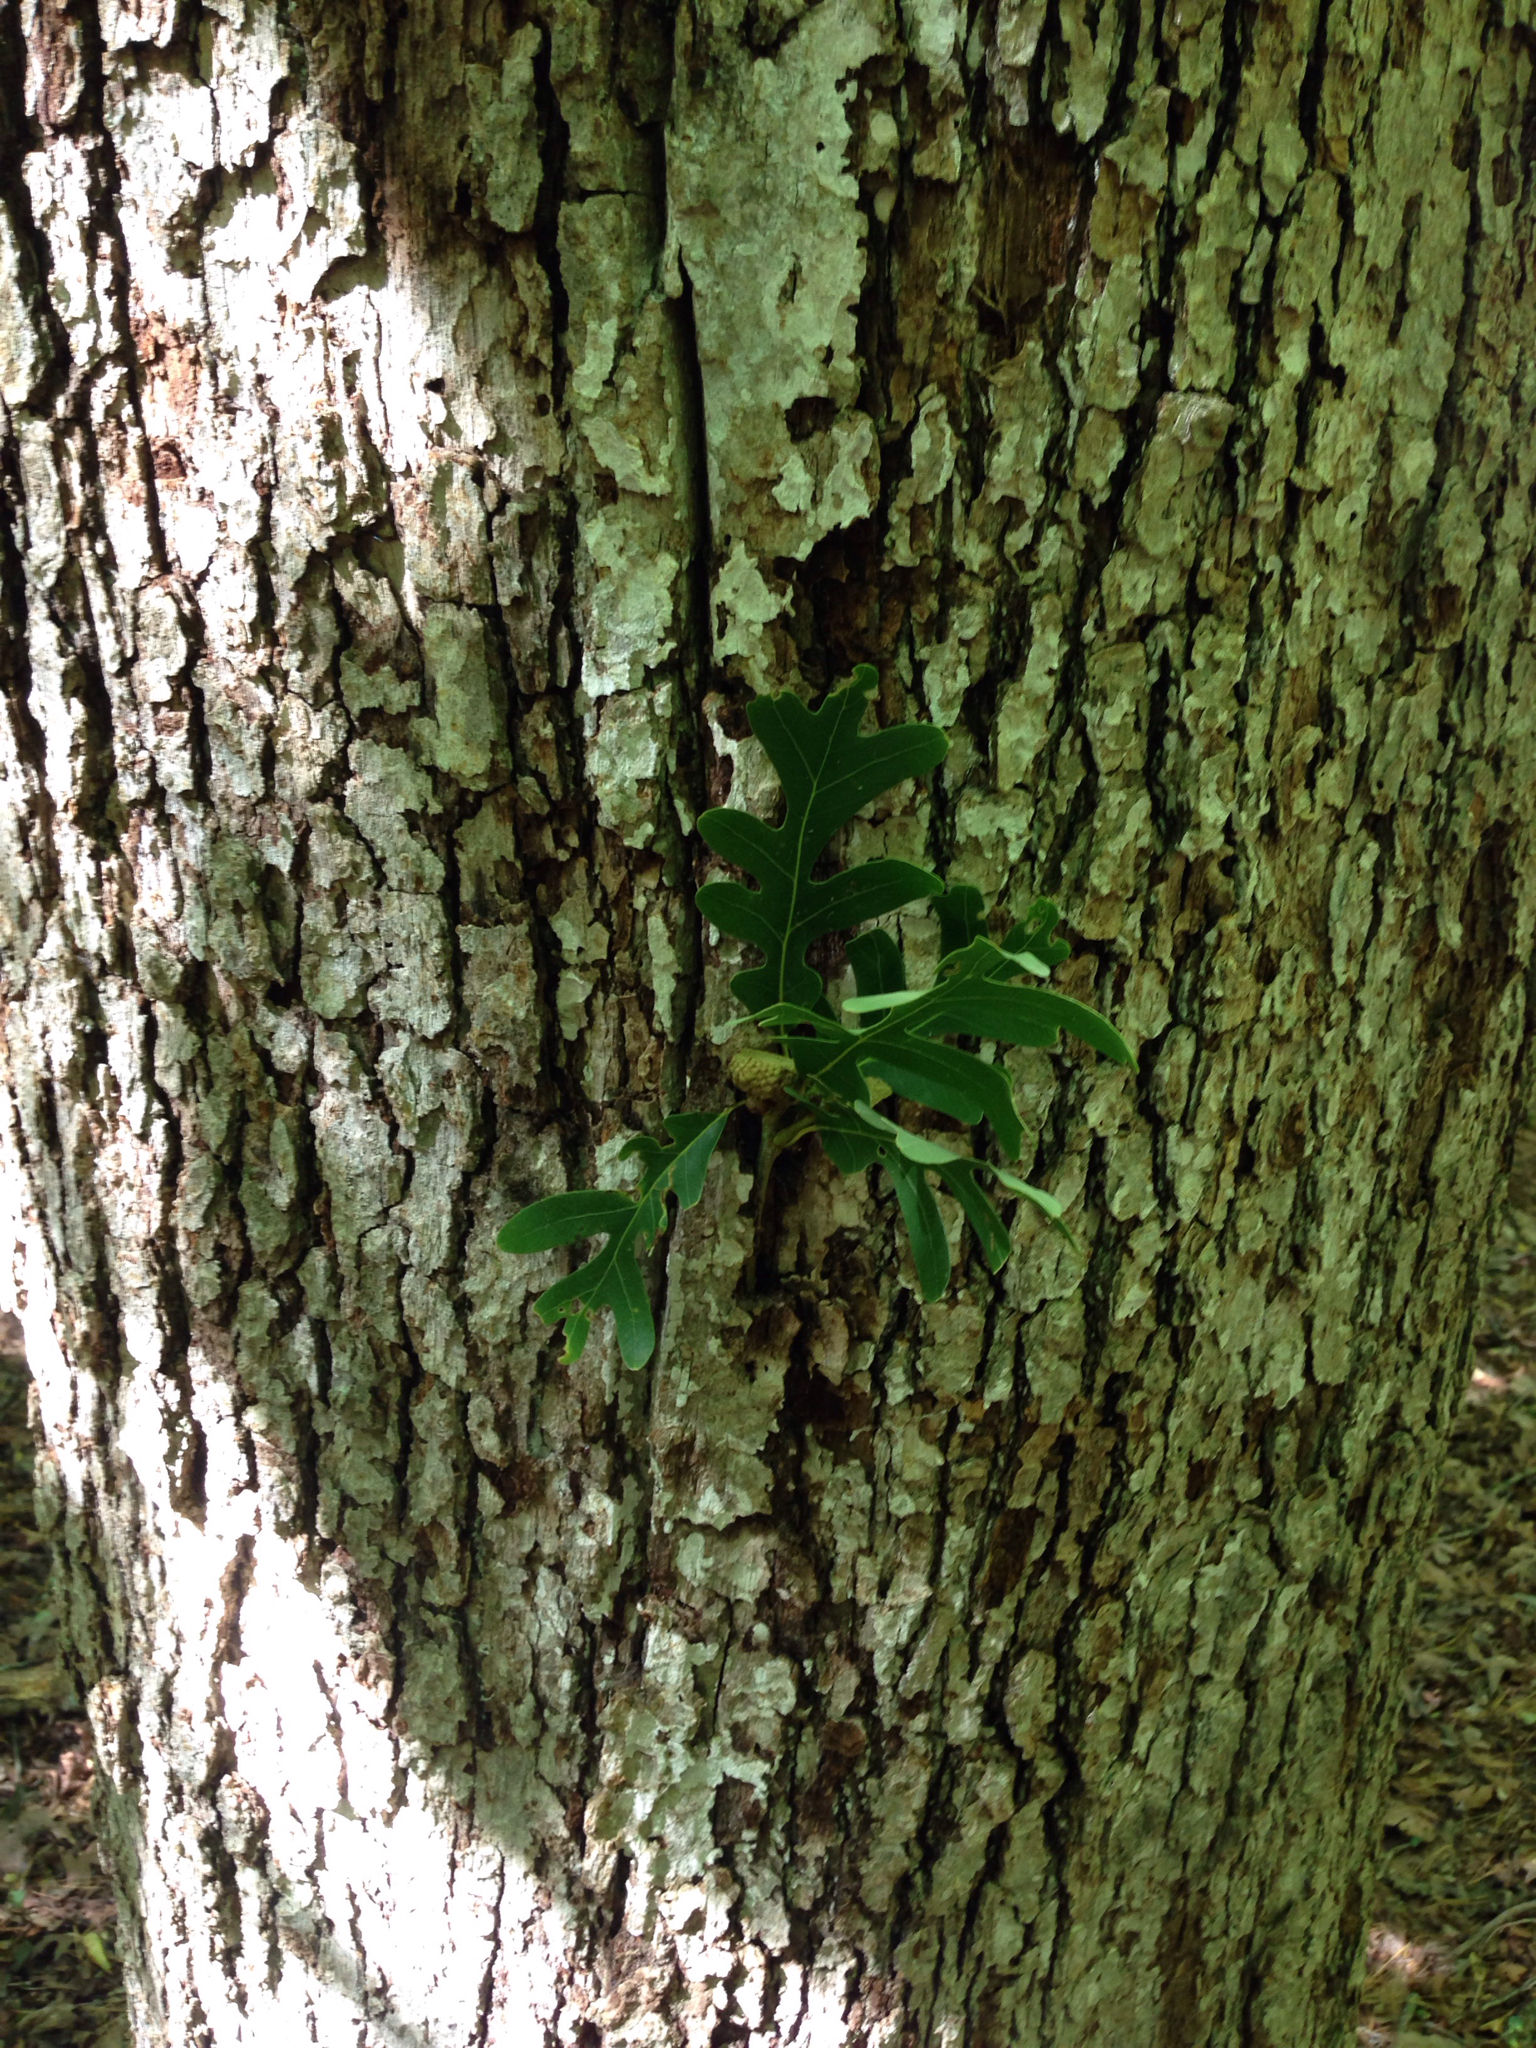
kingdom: Plantae
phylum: Tracheophyta
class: Magnoliopsida
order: Fagales
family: Fagaceae
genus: Quercus
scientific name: Quercus alba
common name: White oak
